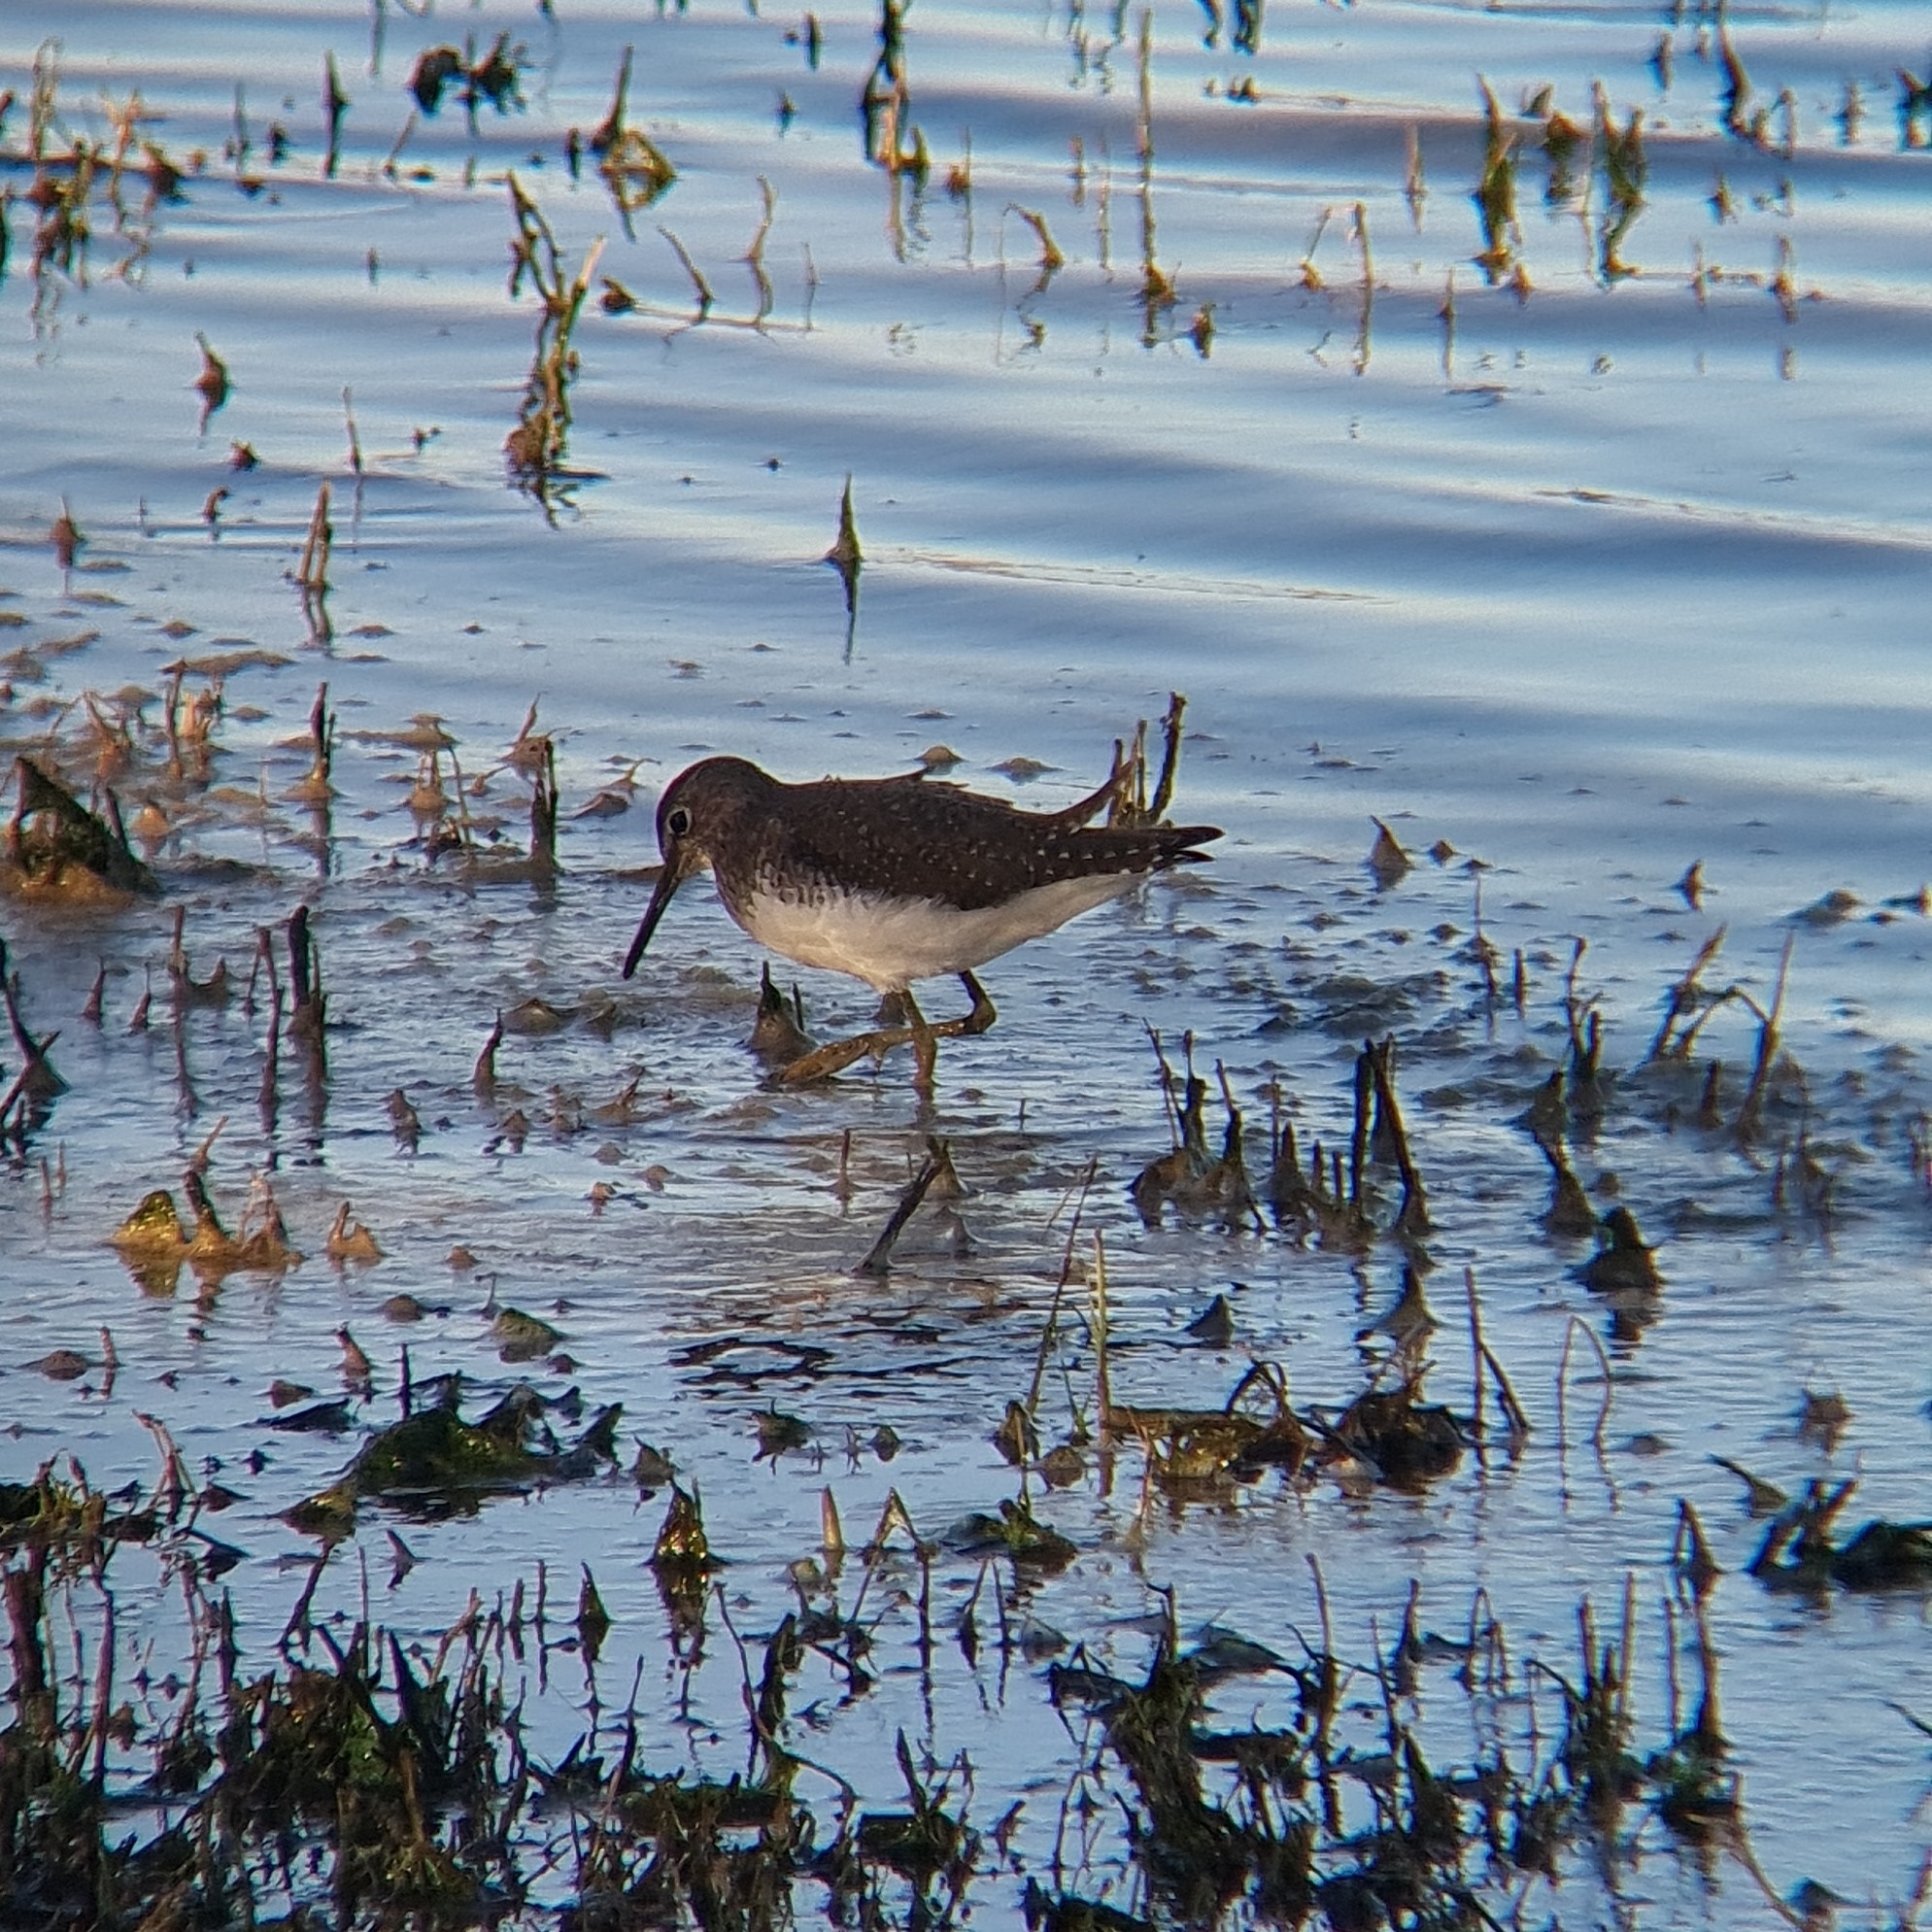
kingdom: Animalia
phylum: Chordata
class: Aves
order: Charadriiformes
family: Scolopacidae
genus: Tringa
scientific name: Tringa ochropus
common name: Green sandpiper
